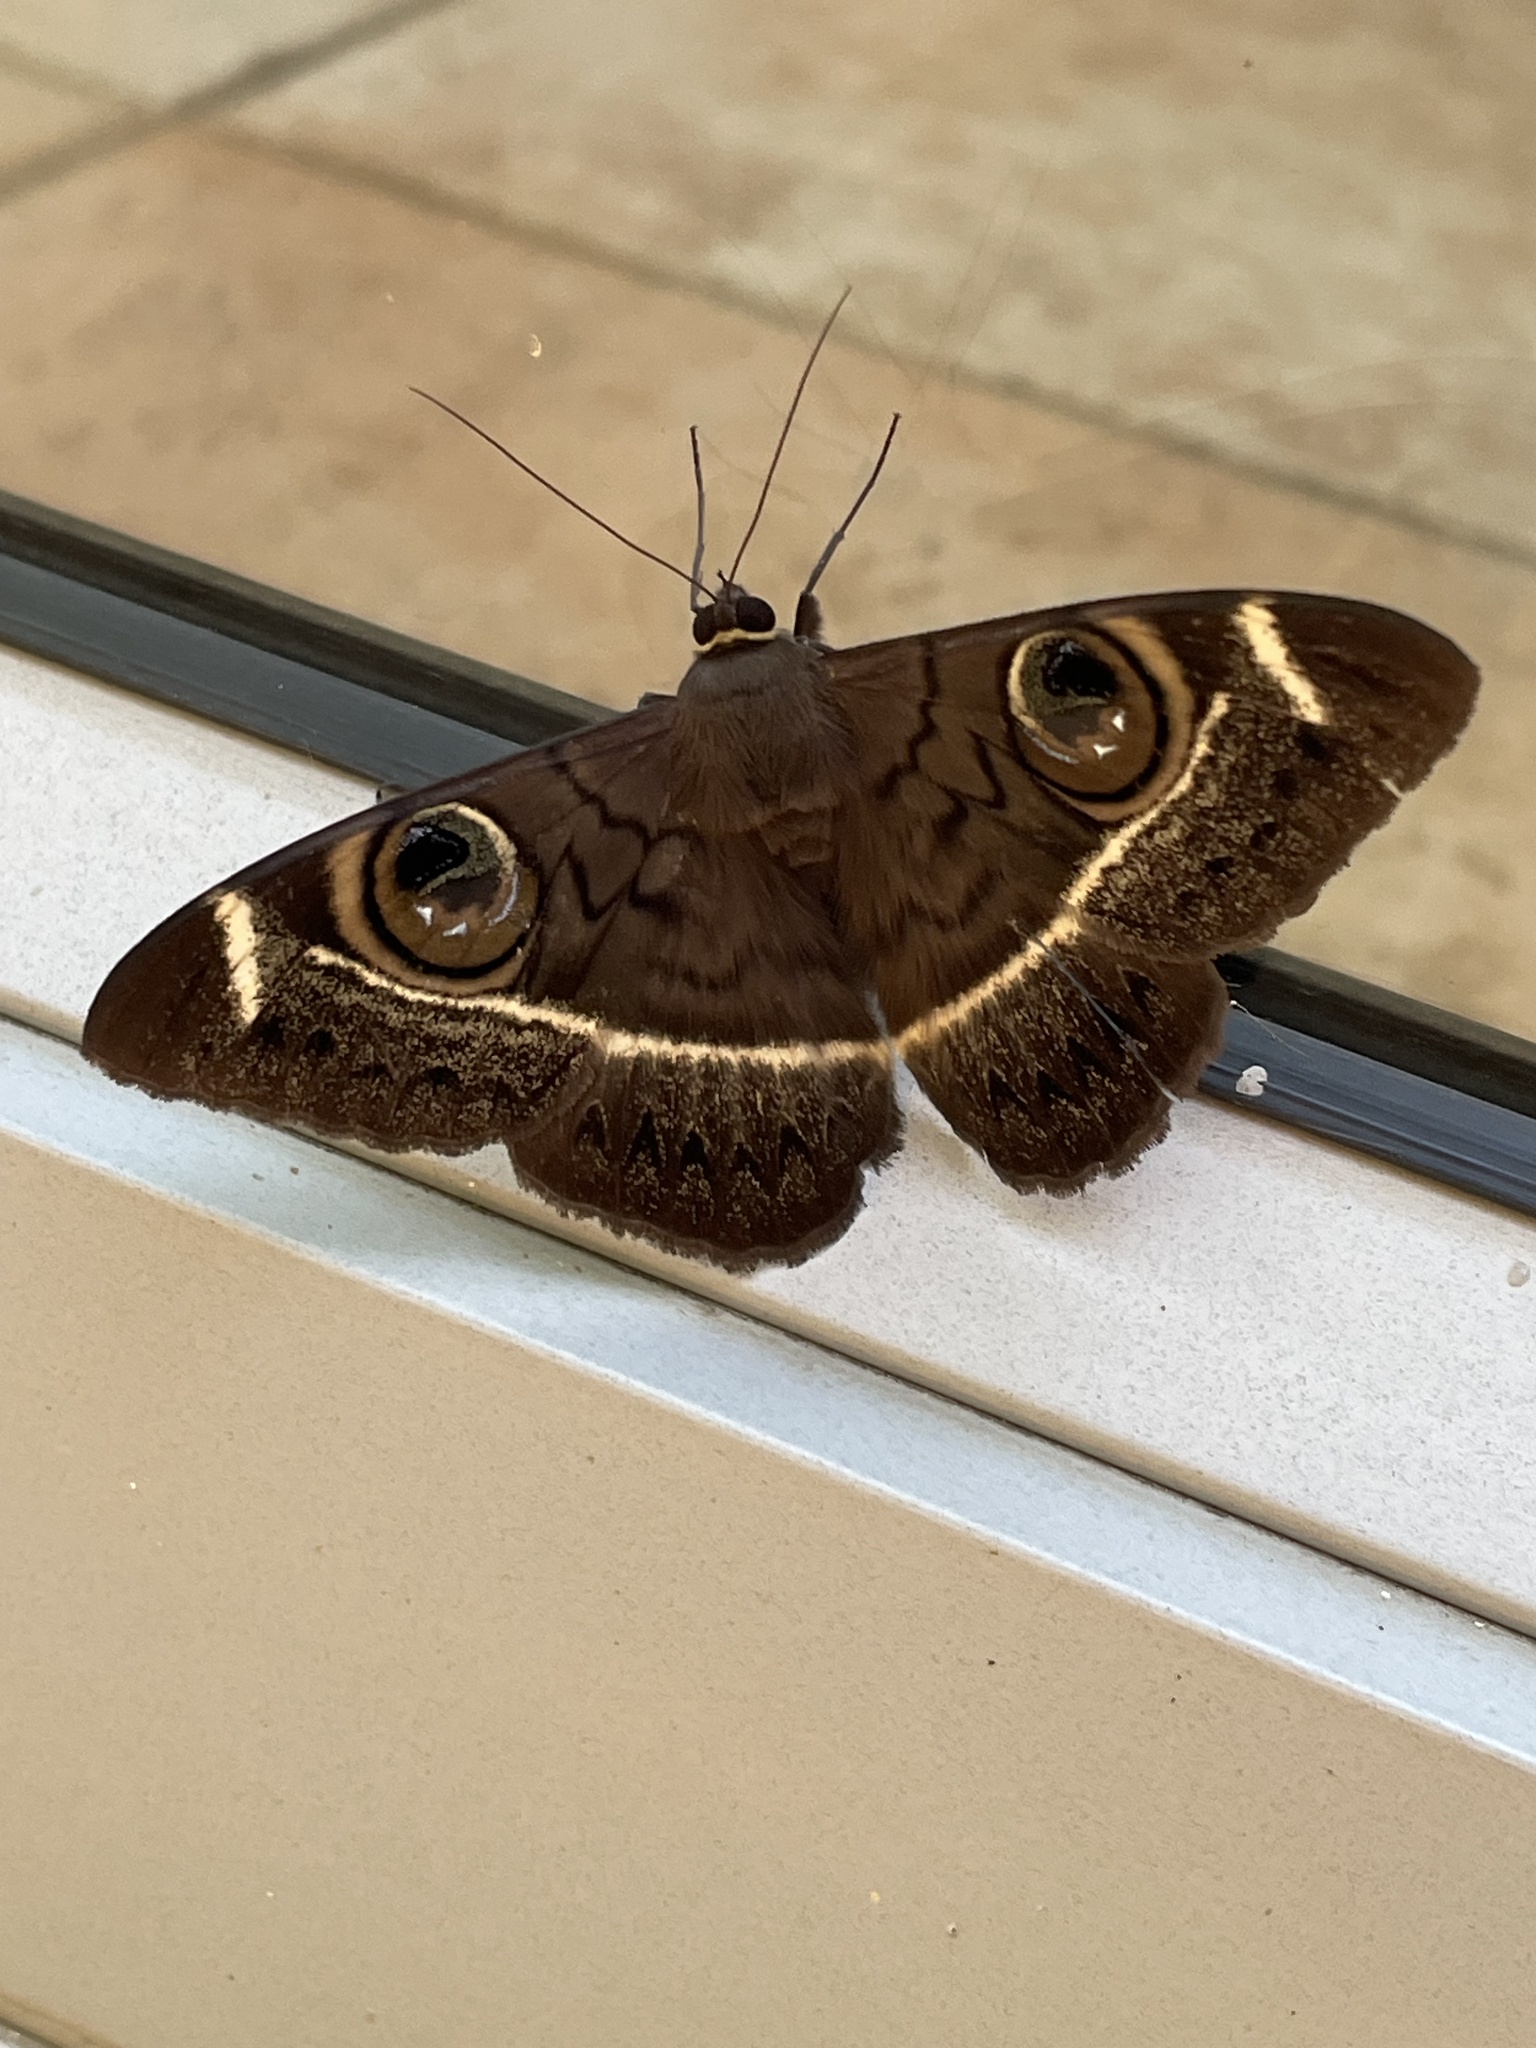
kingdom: Animalia
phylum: Arthropoda
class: Insecta
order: Lepidoptera
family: Erebidae
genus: Cyligramma
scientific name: Cyligramma latona
